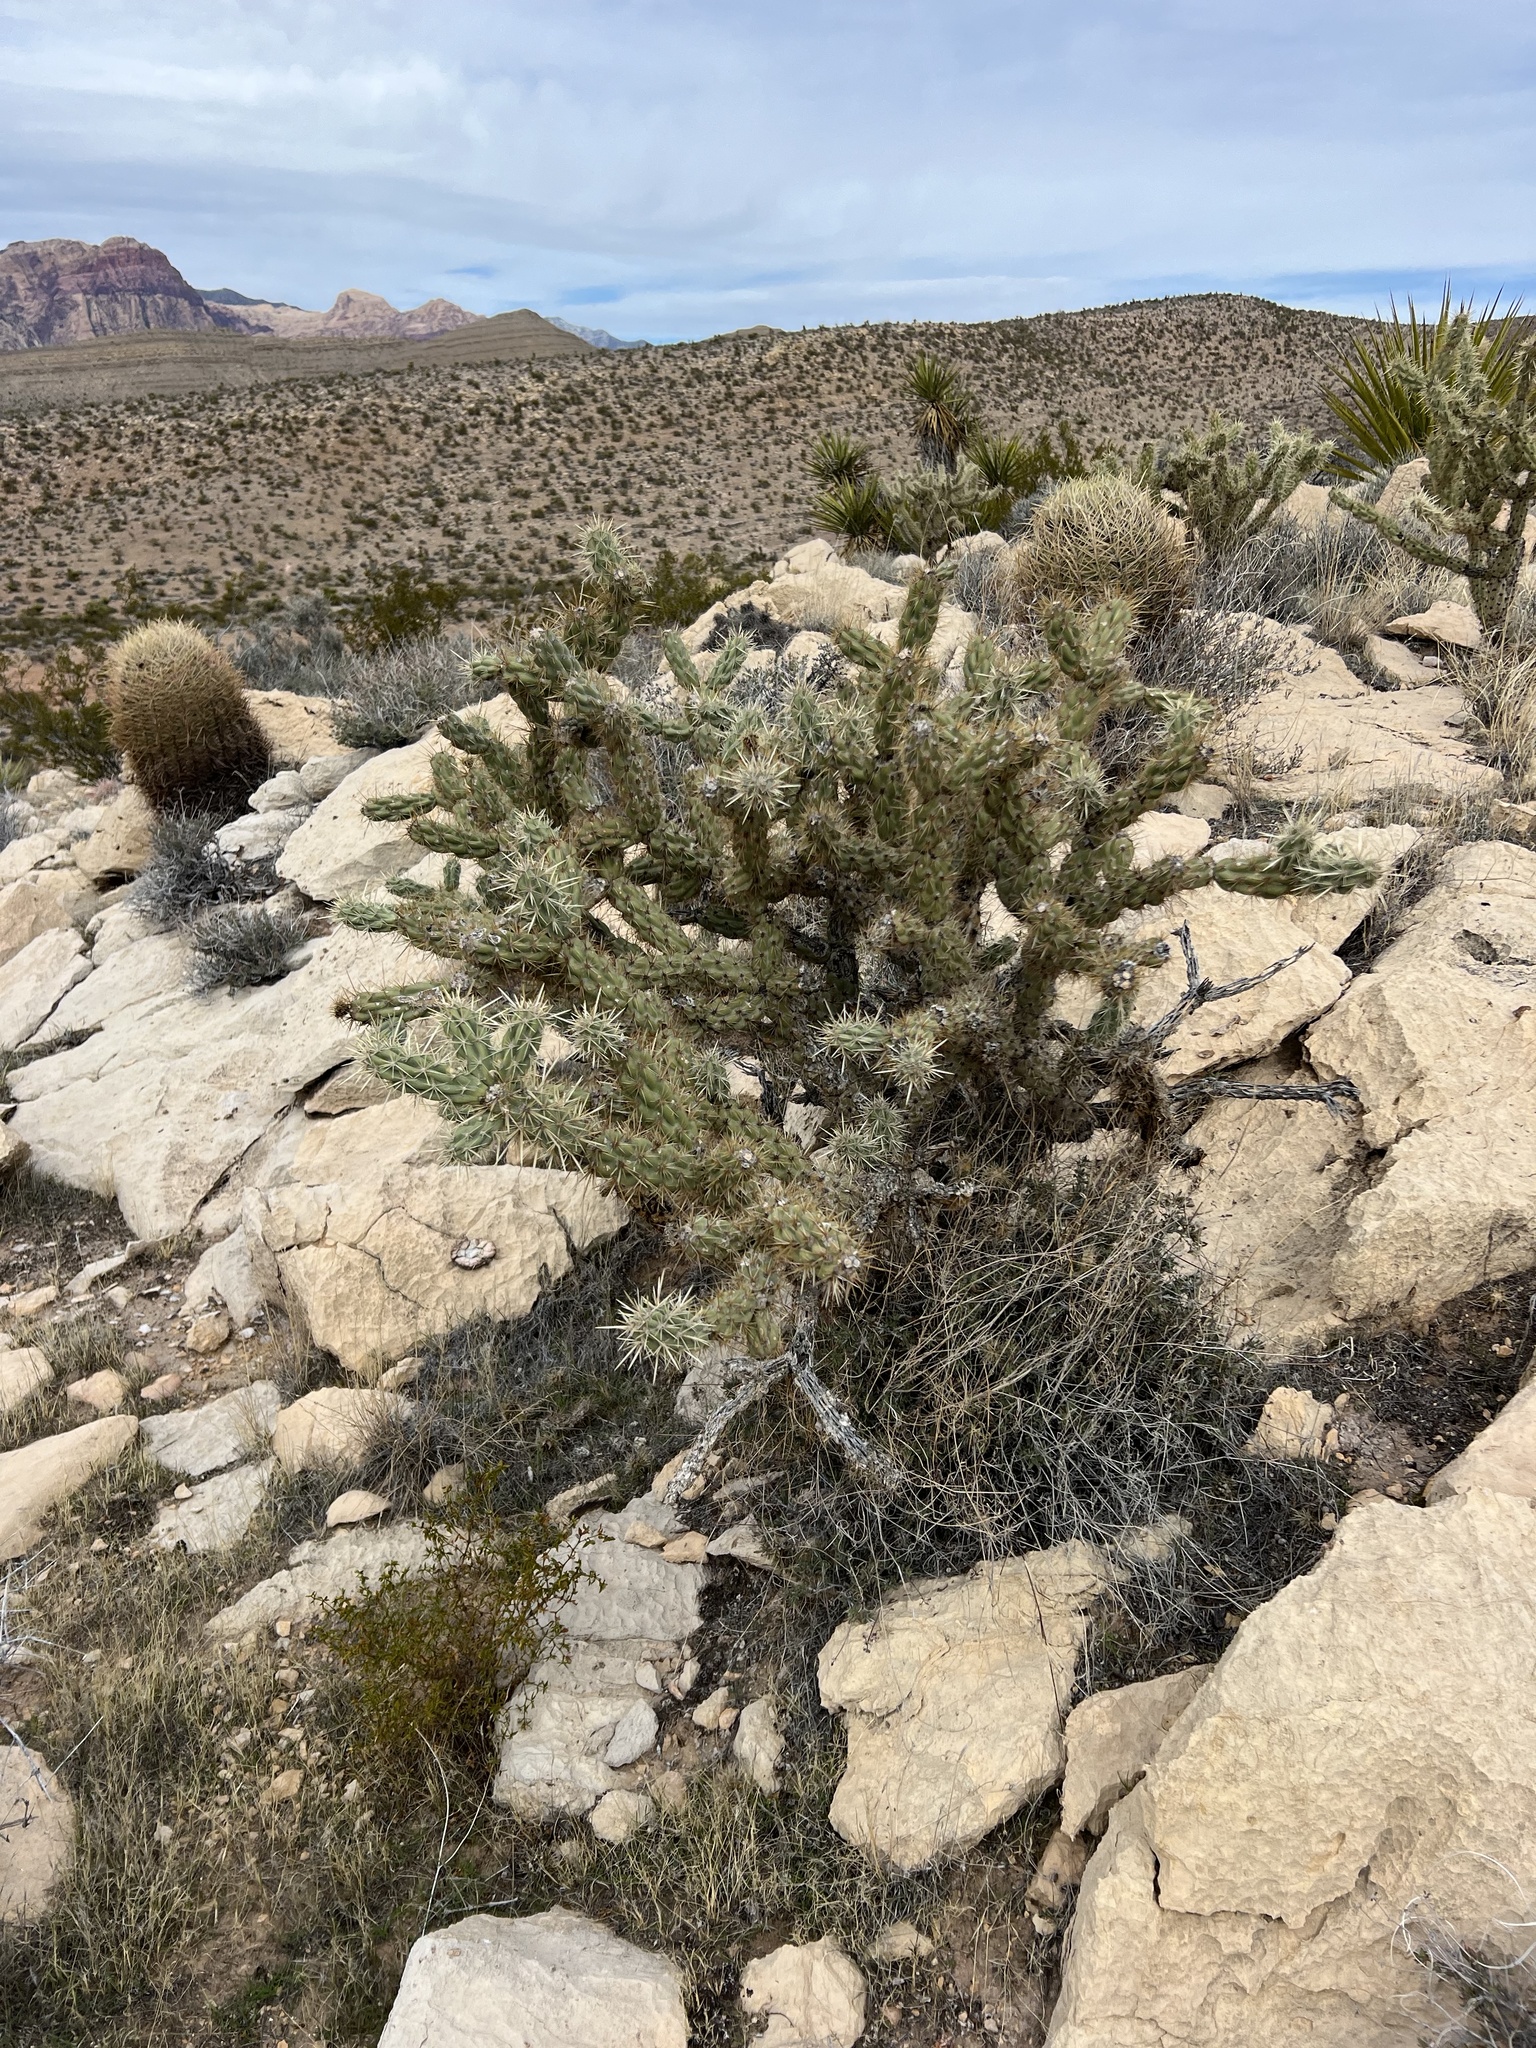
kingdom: Plantae
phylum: Tracheophyta
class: Magnoliopsida
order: Caryophyllales
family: Cactaceae
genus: Cylindropuntia
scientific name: Cylindropuntia acanthocarpa
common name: Buckhorn cholla
